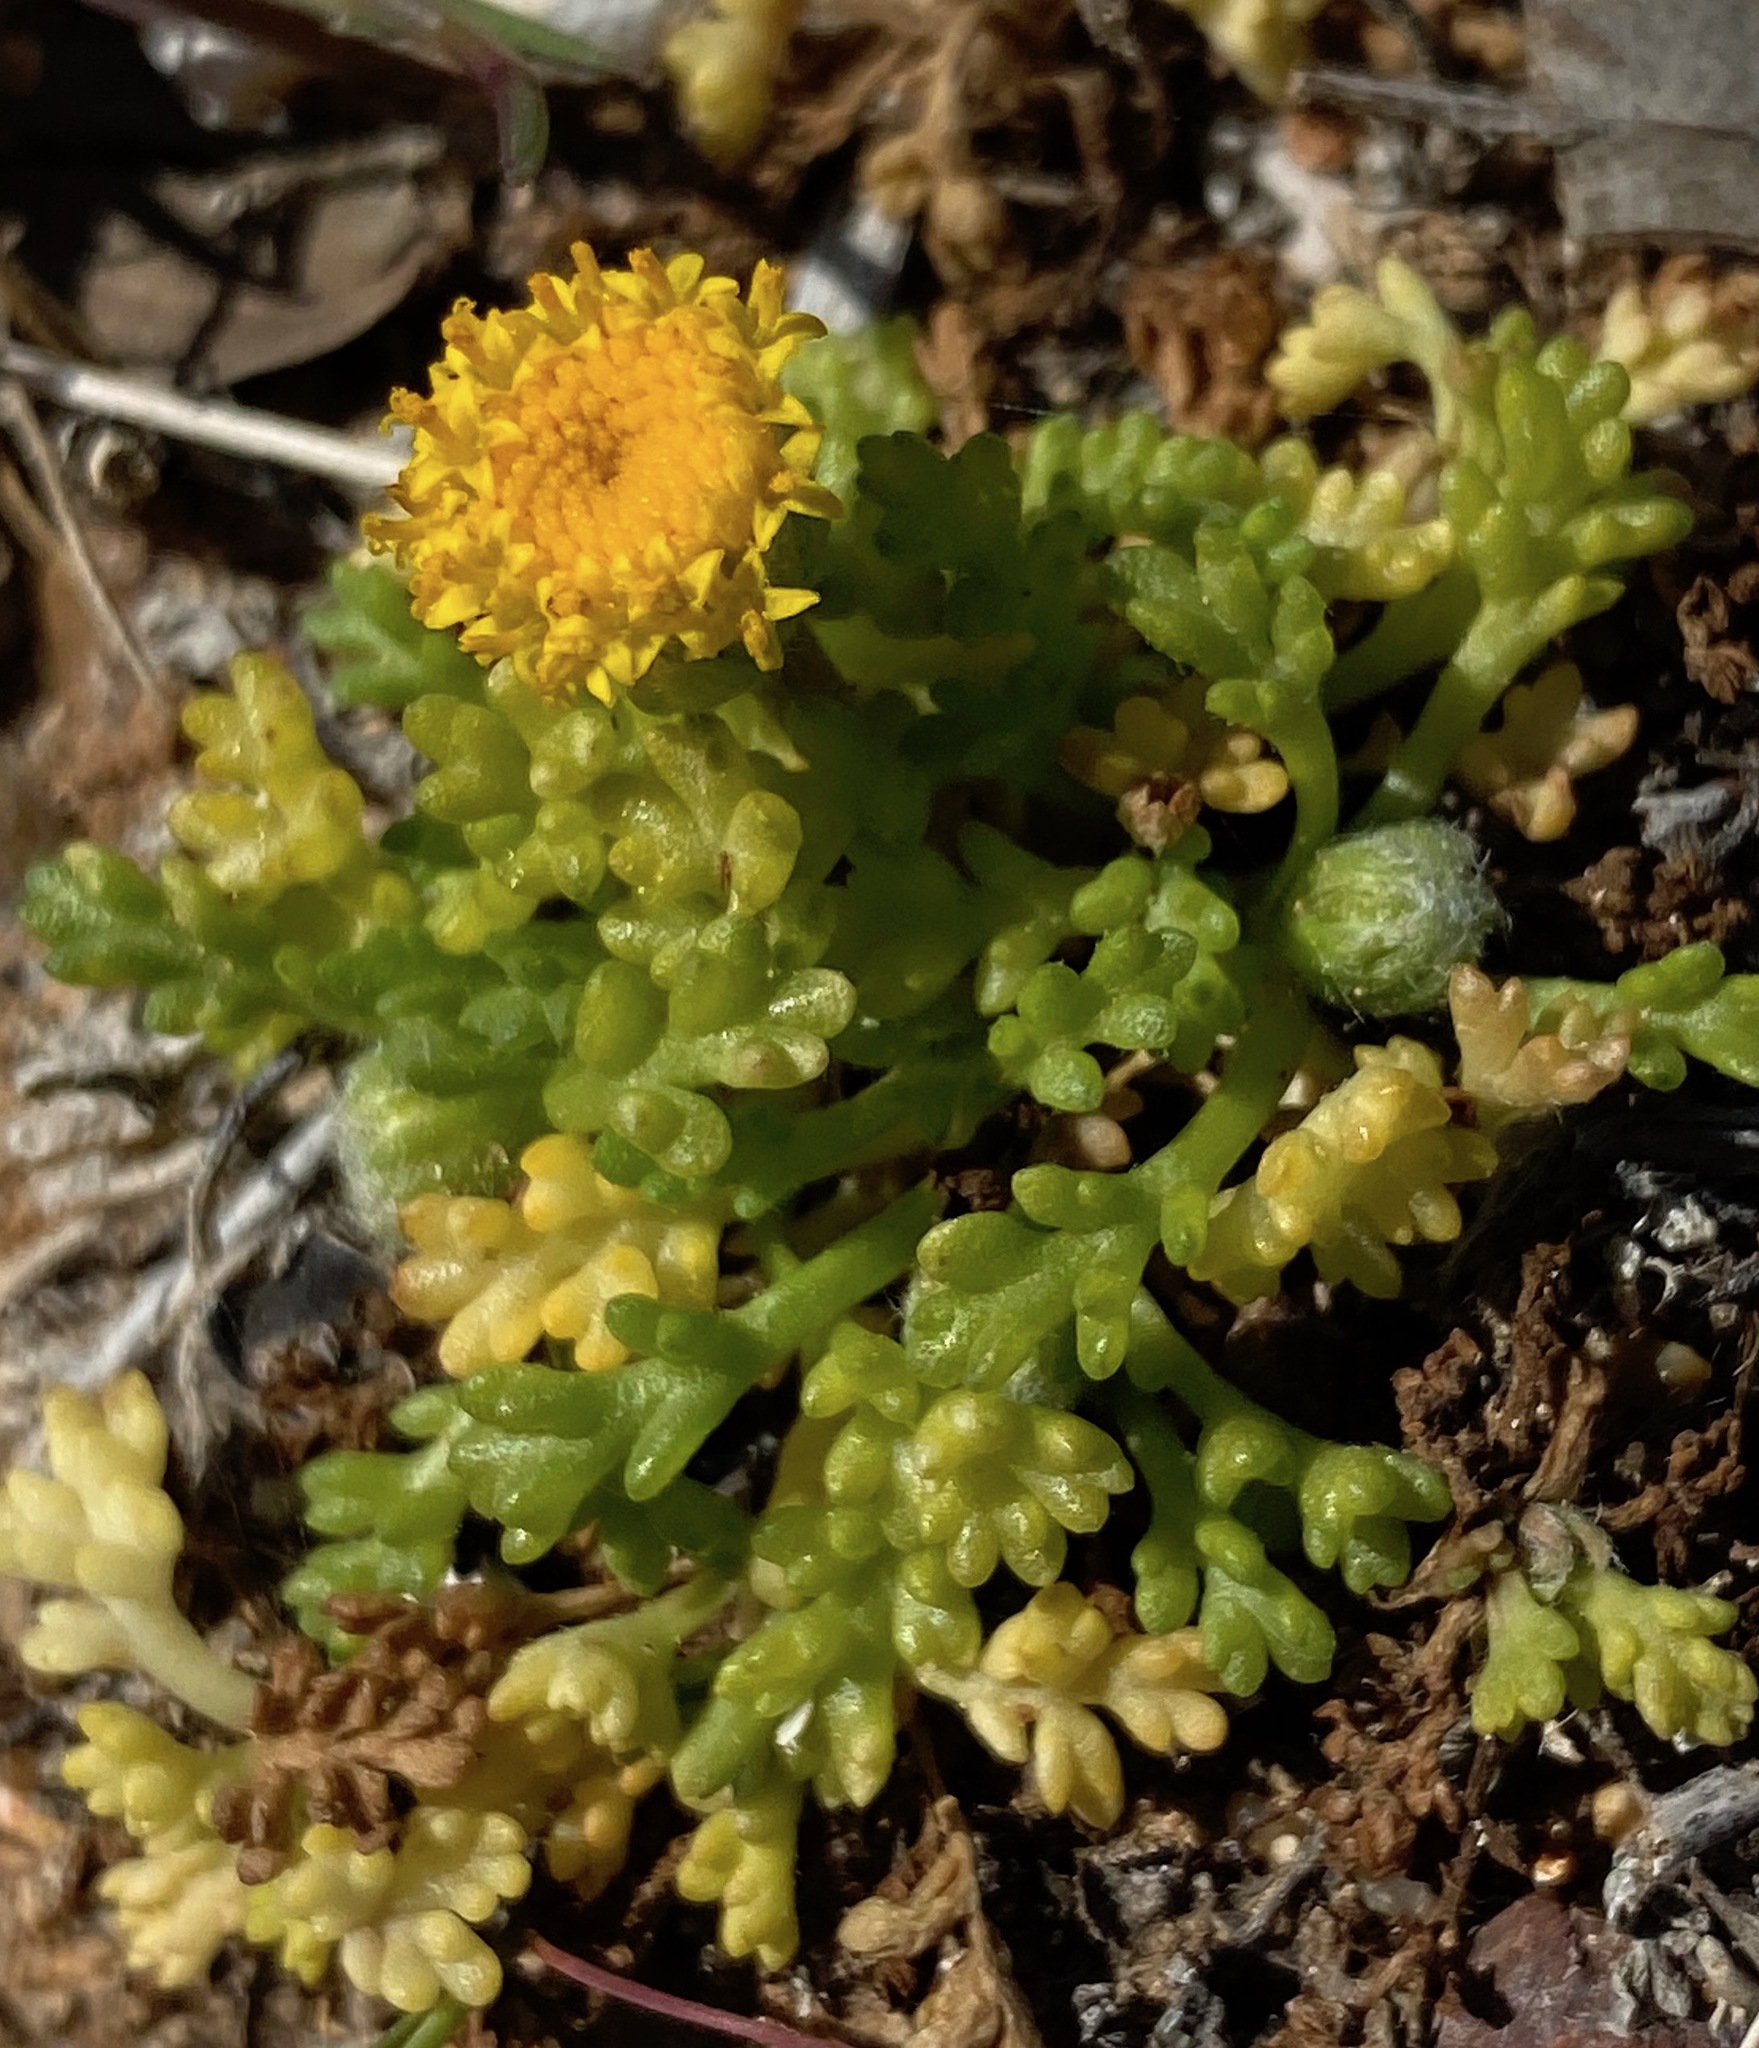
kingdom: Plantae
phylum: Tracheophyta
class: Magnoliopsida
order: Asterales
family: Asteraceae
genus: Anthemis
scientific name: Anthemis rigida
